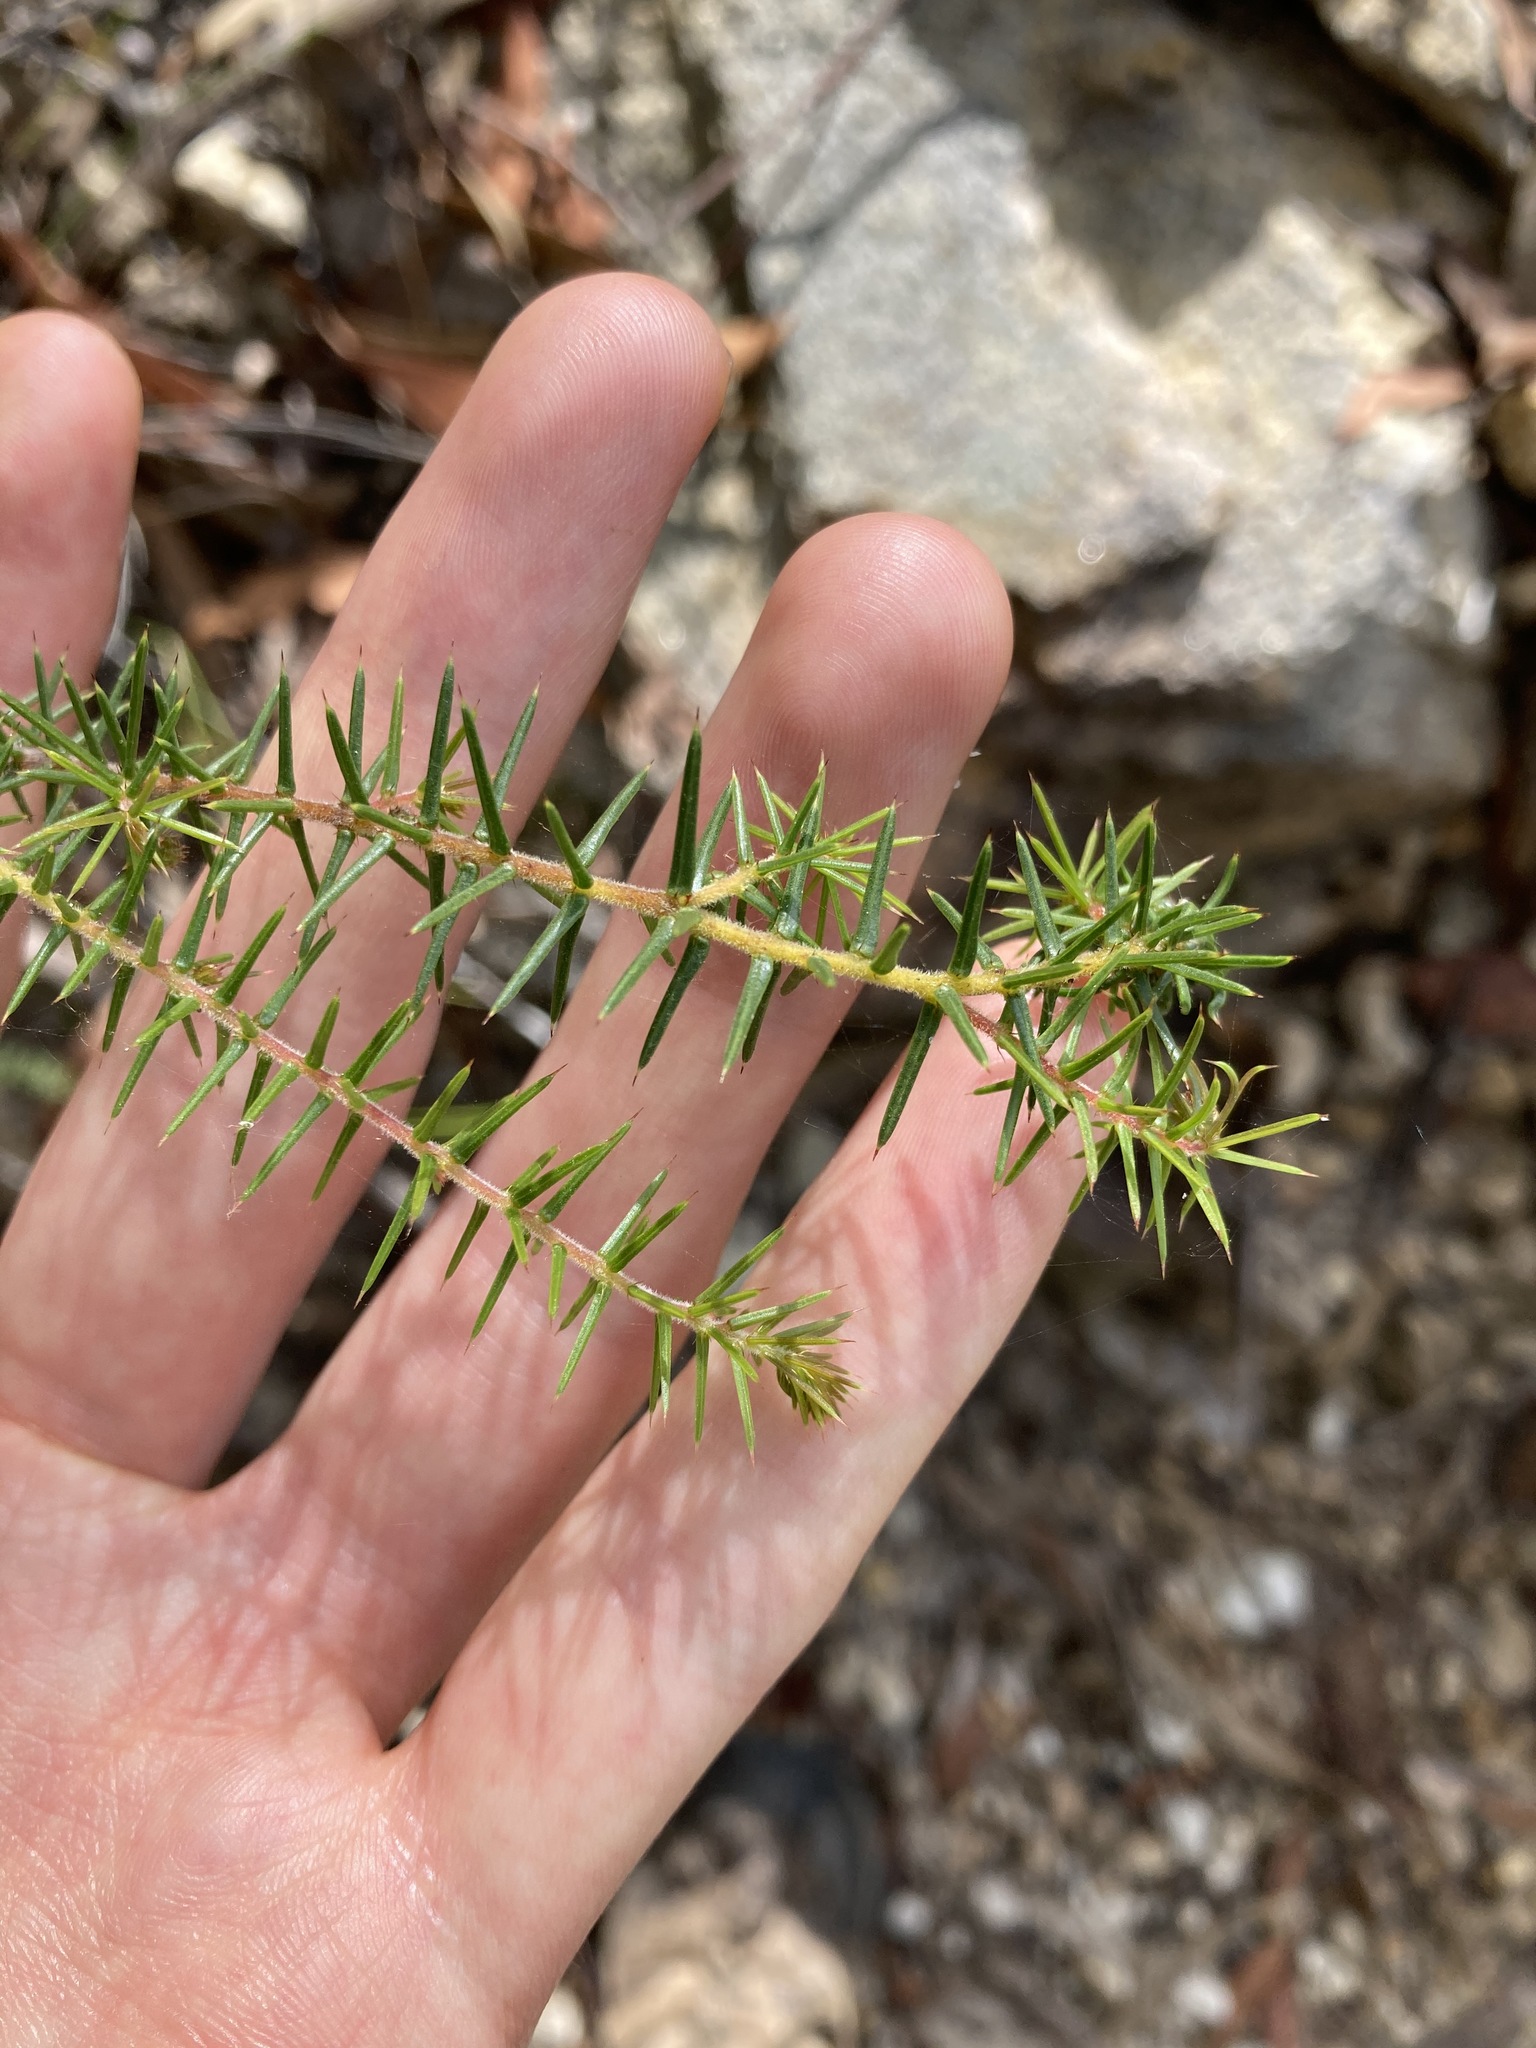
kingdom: Plantae
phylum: Tracheophyta
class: Magnoliopsida
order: Fabales
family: Fabaceae
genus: Acacia
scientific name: Acacia ulicifolia
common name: Juniper wattle
